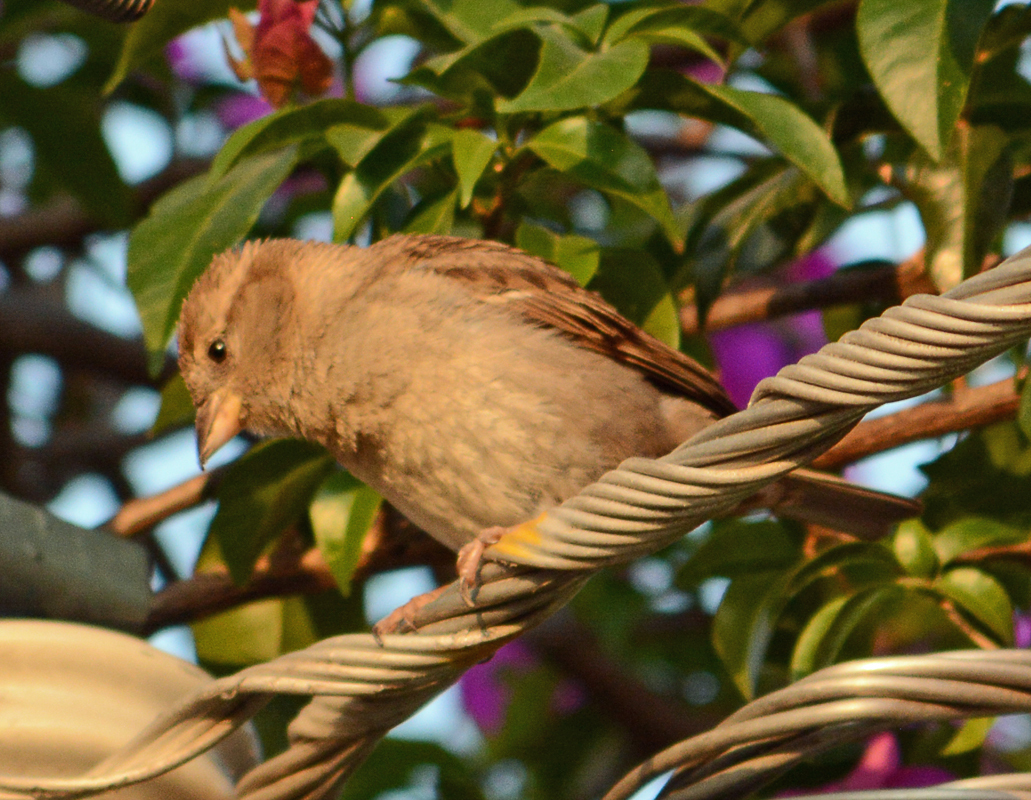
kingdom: Animalia
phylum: Chordata
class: Aves
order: Passeriformes
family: Passeridae
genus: Passer
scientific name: Passer domesticus
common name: House sparrow
